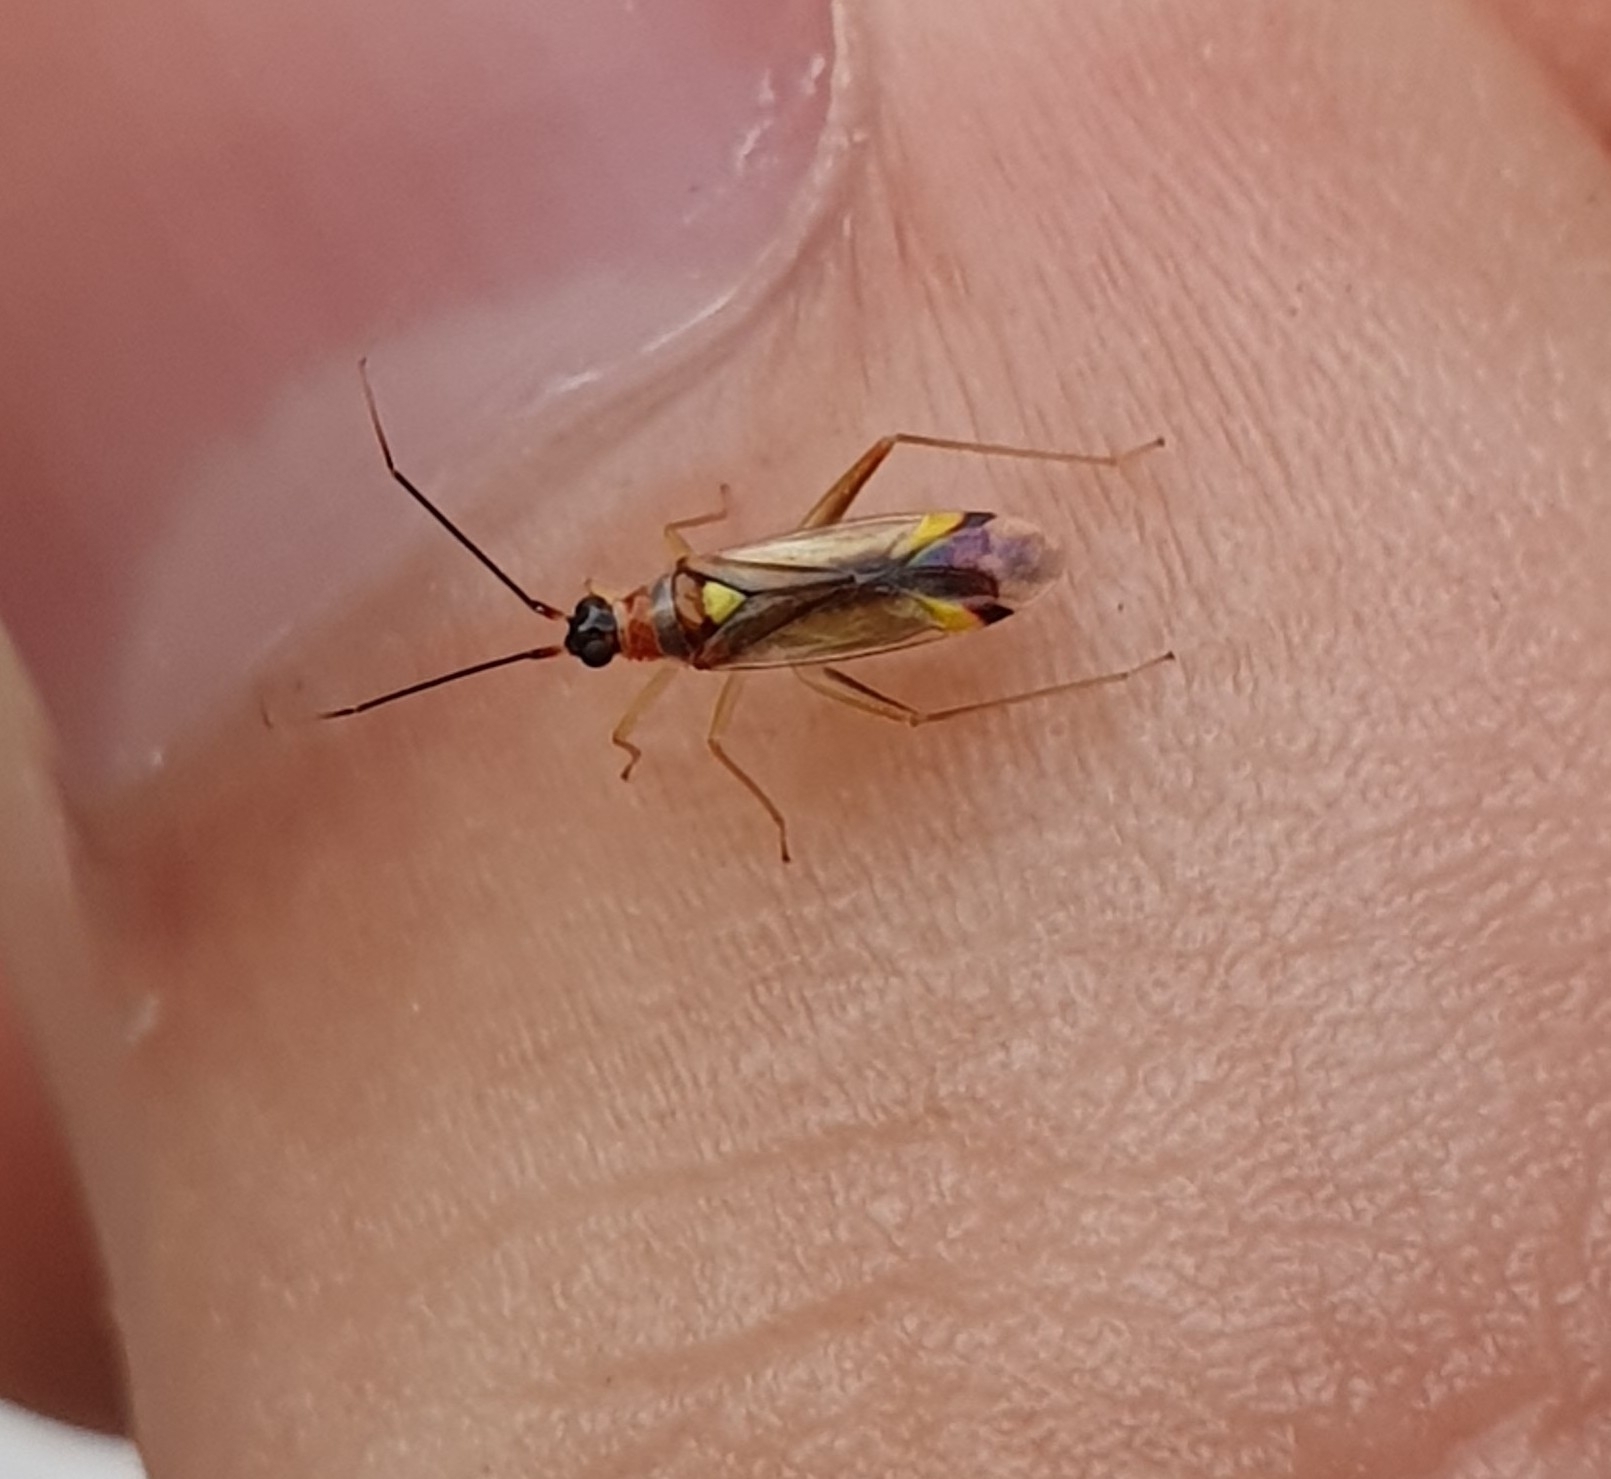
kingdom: Animalia
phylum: Arthropoda
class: Insecta
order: Hemiptera
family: Miridae
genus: Campyloneura
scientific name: Campyloneura virgula
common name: Predatory bug
